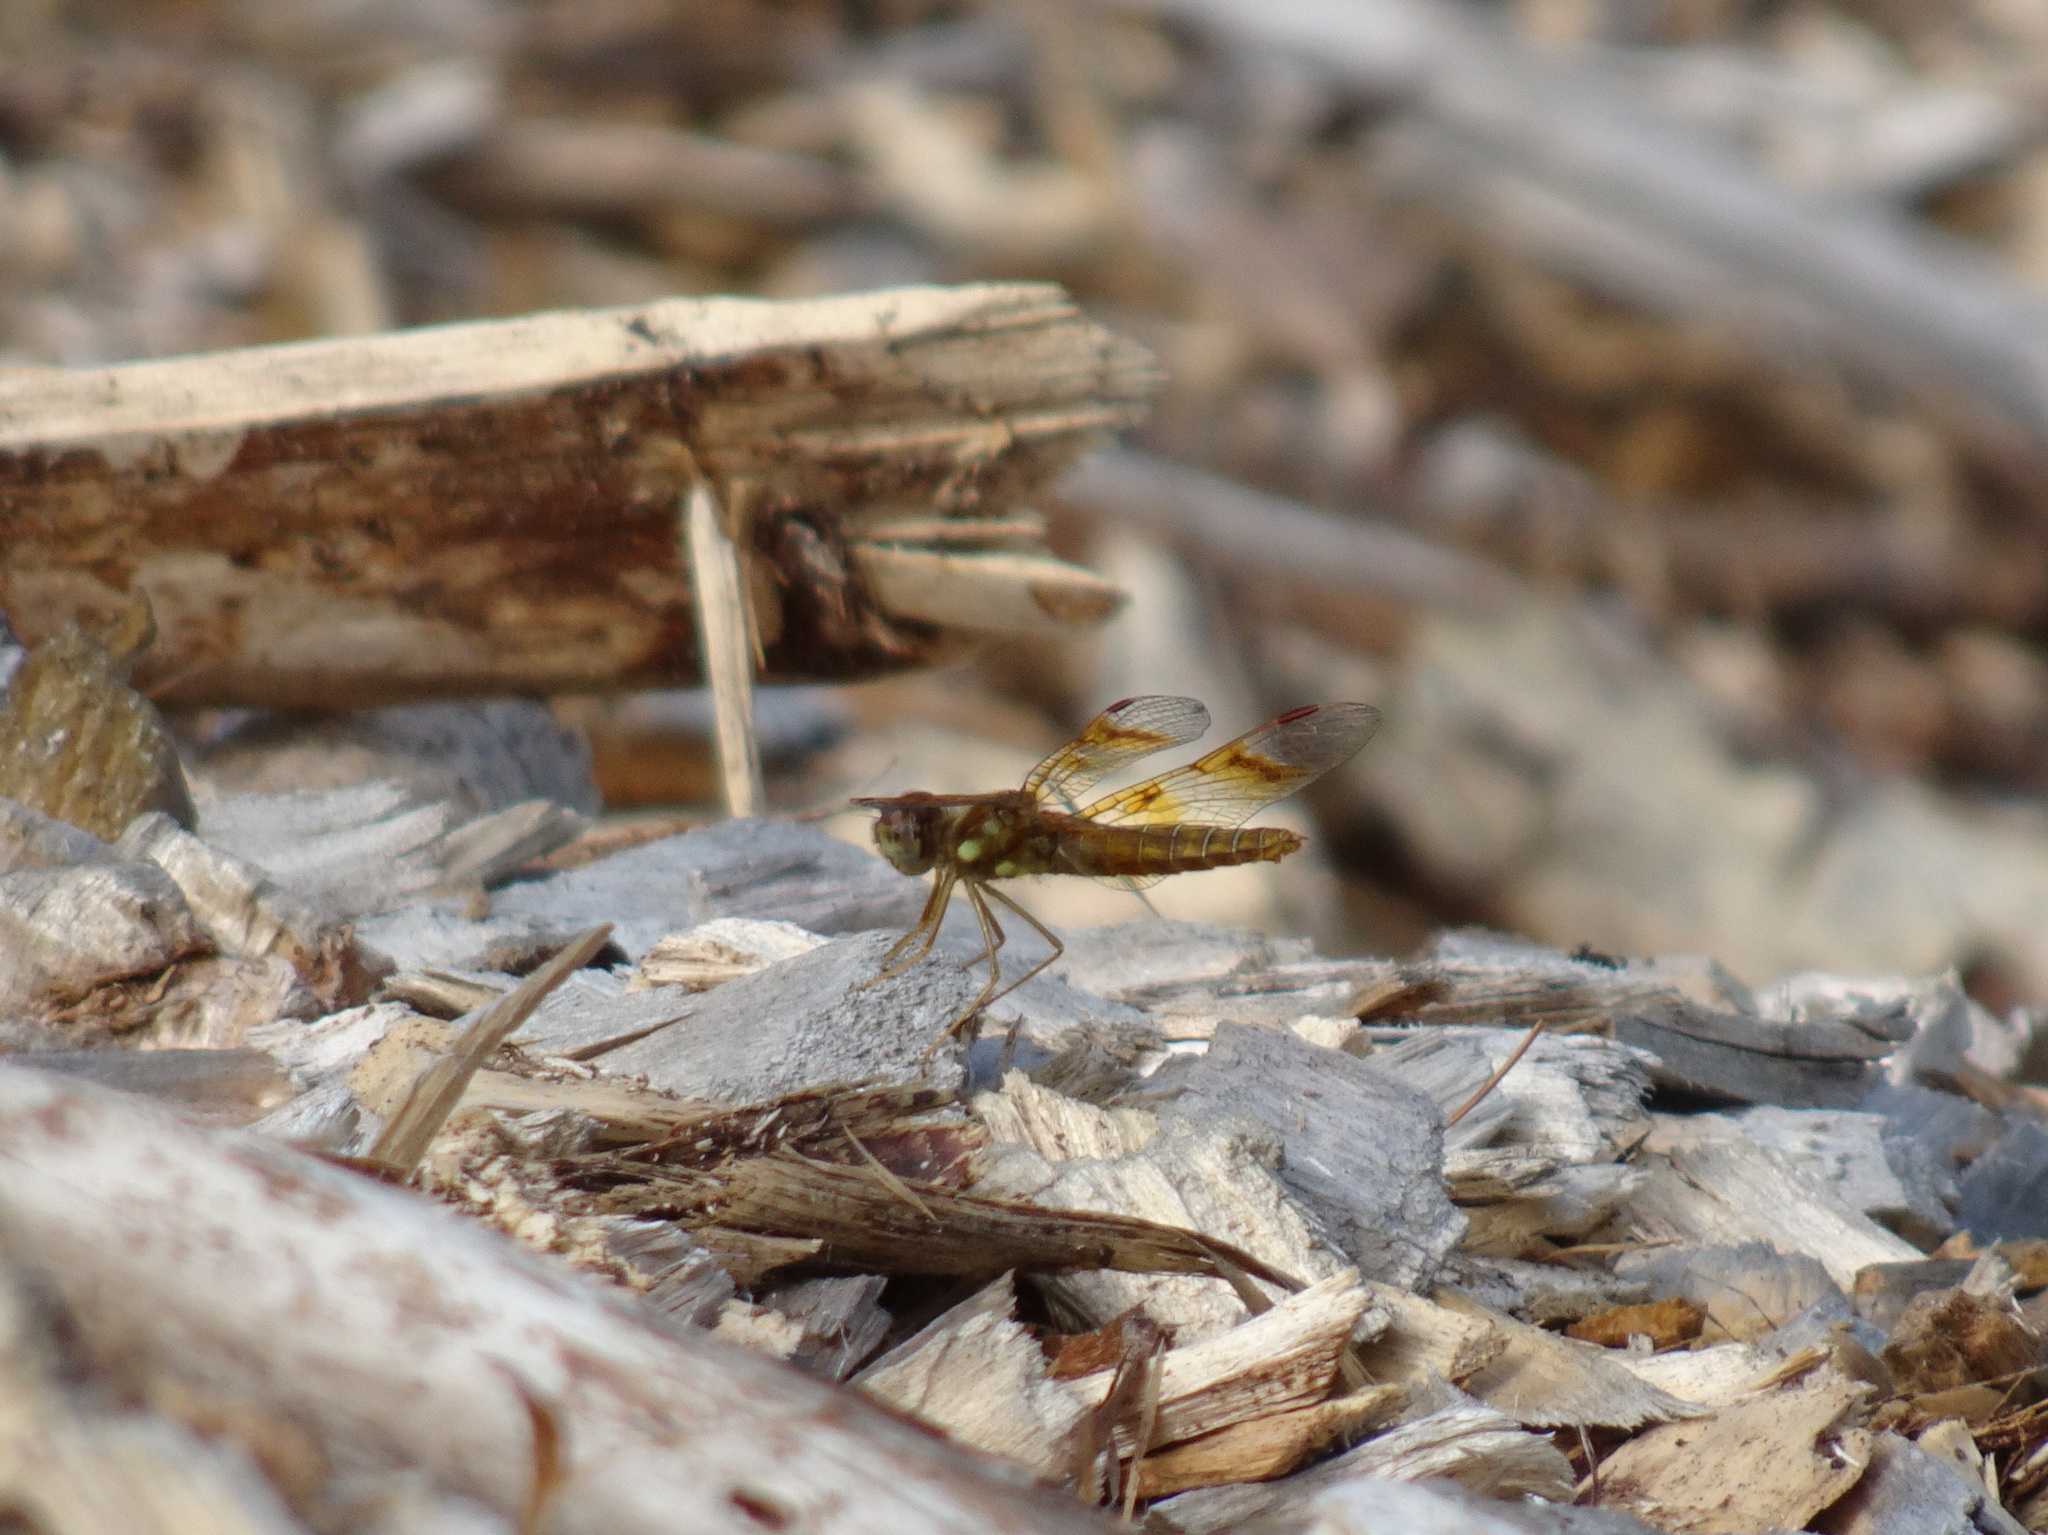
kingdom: Animalia
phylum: Arthropoda
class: Insecta
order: Odonata
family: Libellulidae
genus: Perithemis
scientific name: Perithemis tenera
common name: Eastern amberwing
